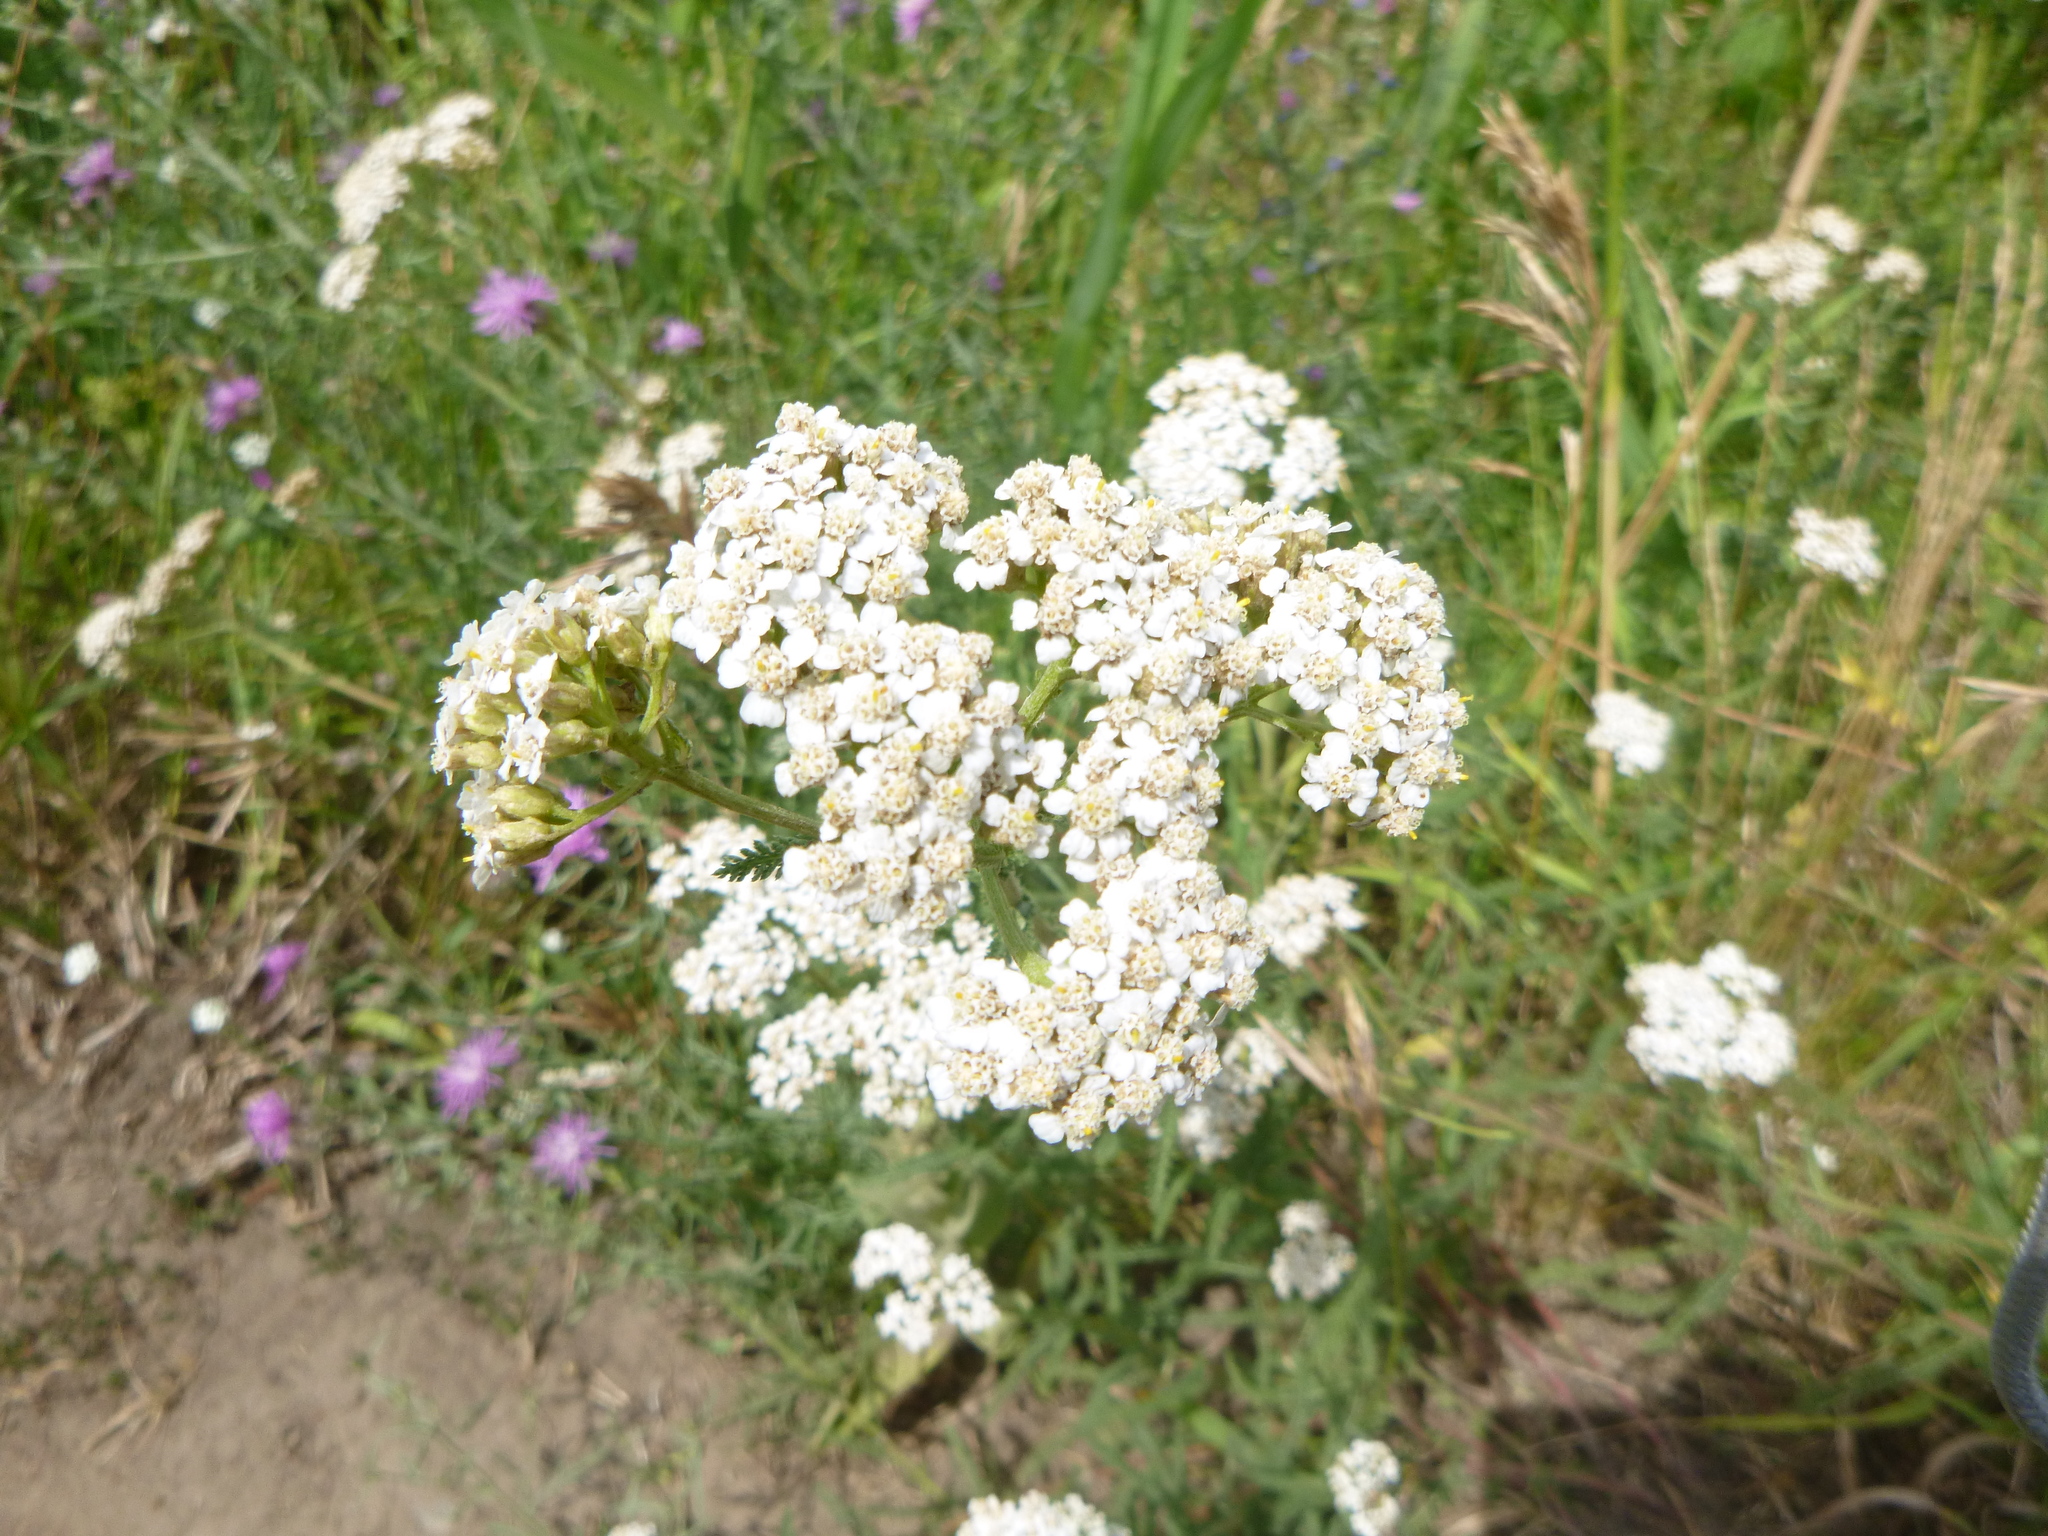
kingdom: Plantae
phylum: Tracheophyta
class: Magnoliopsida
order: Asterales
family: Asteraceae
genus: Achillea
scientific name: Achillea millefolium
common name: Yarrow
